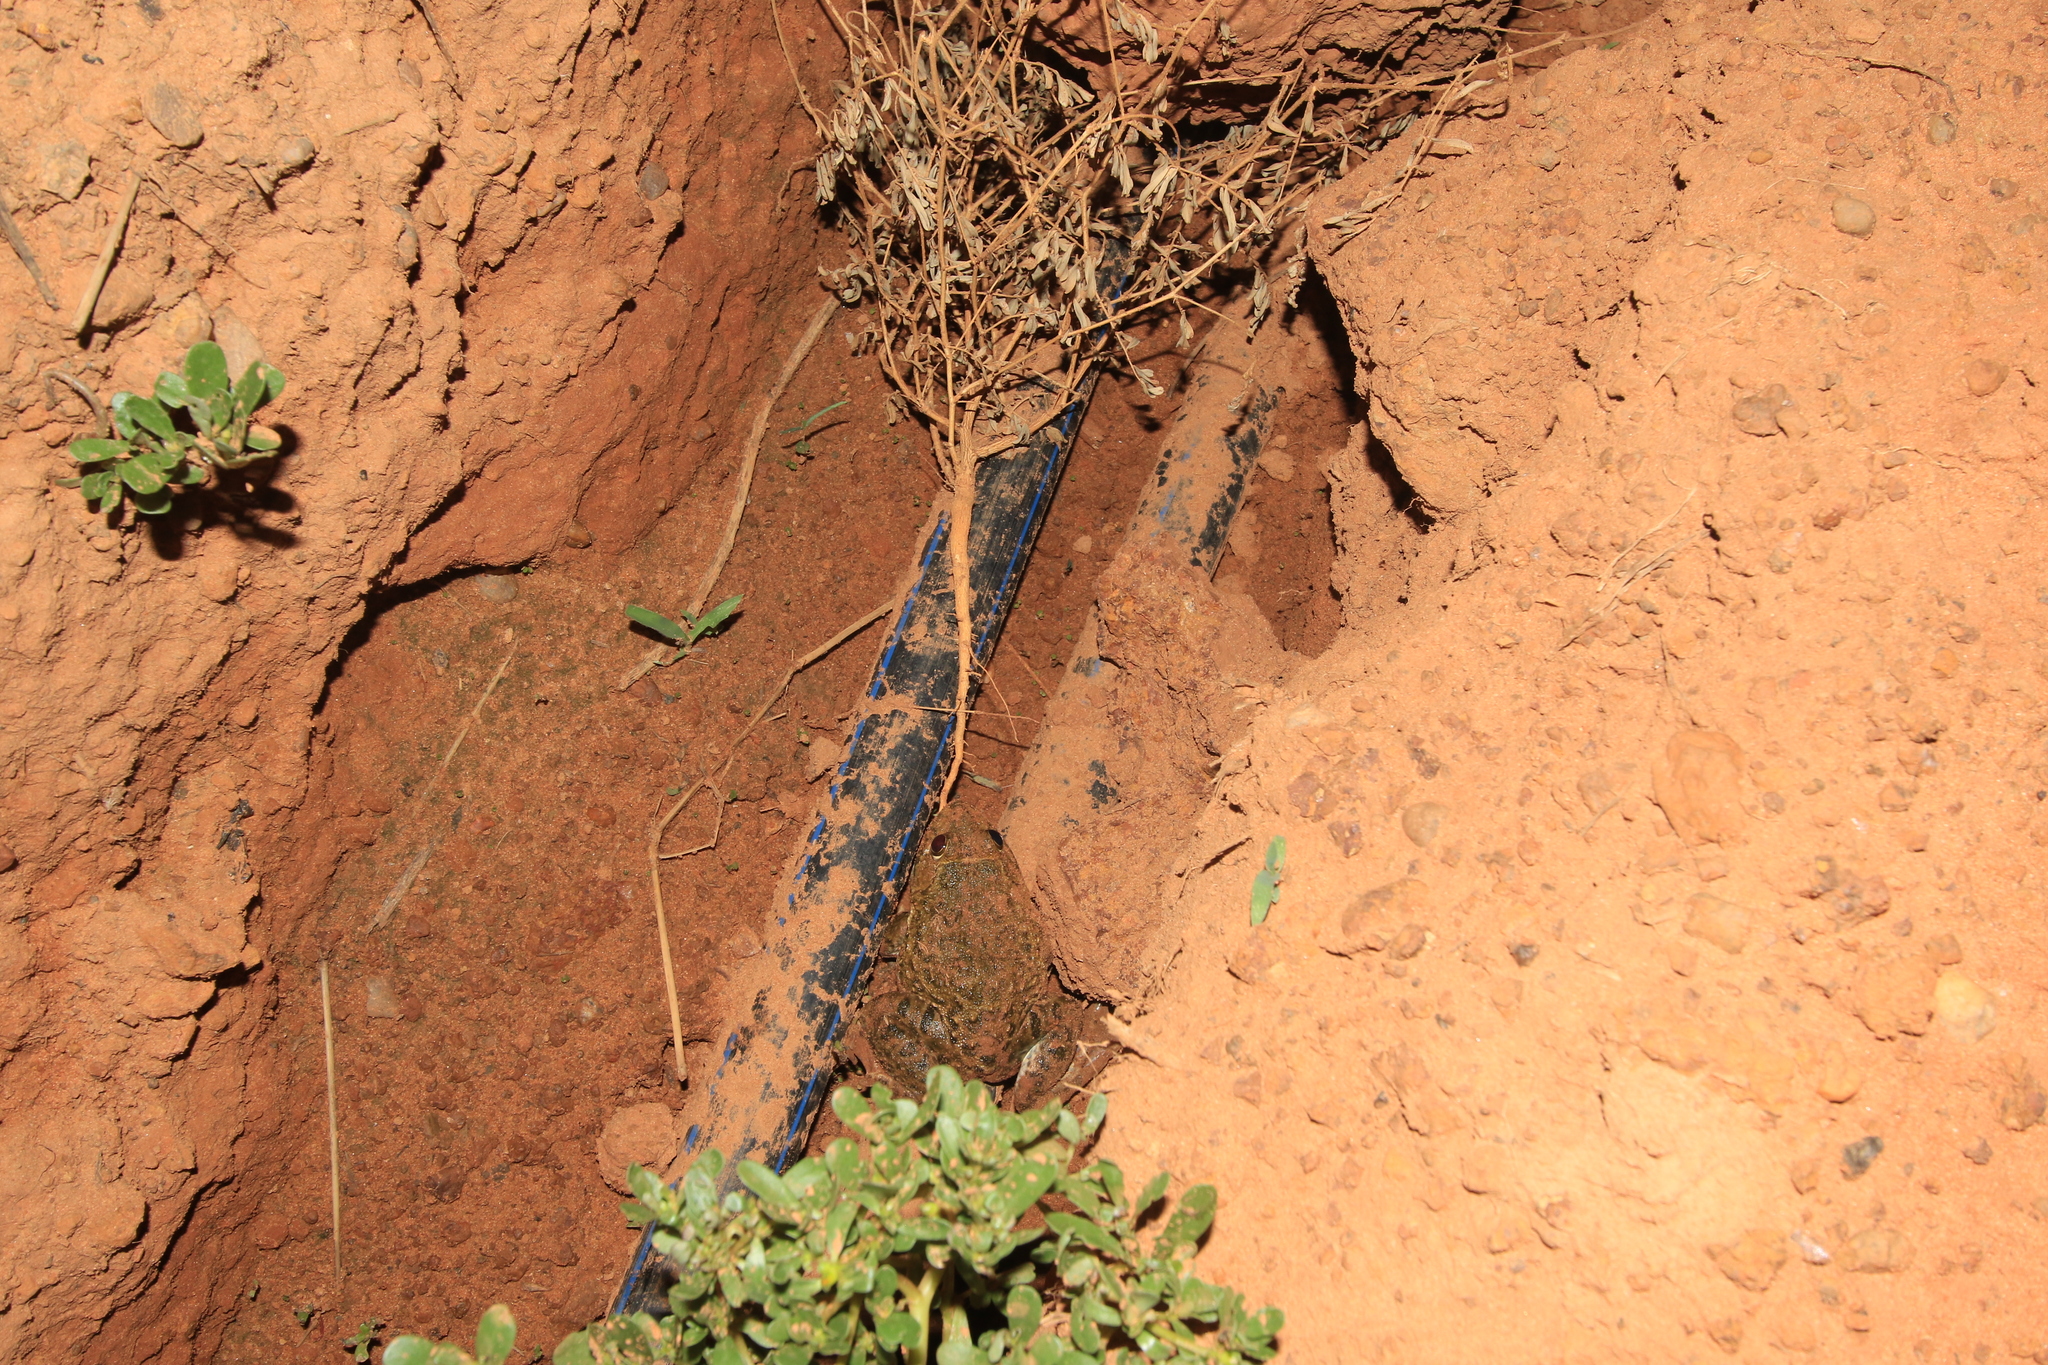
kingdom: Animalia
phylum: Chordata
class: Amphibia
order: Anura
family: Dicroglossidae
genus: Hoplobatrachus
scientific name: Hoplobatrachus occipitalis
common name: Eastern groove-crowned bullfrog
